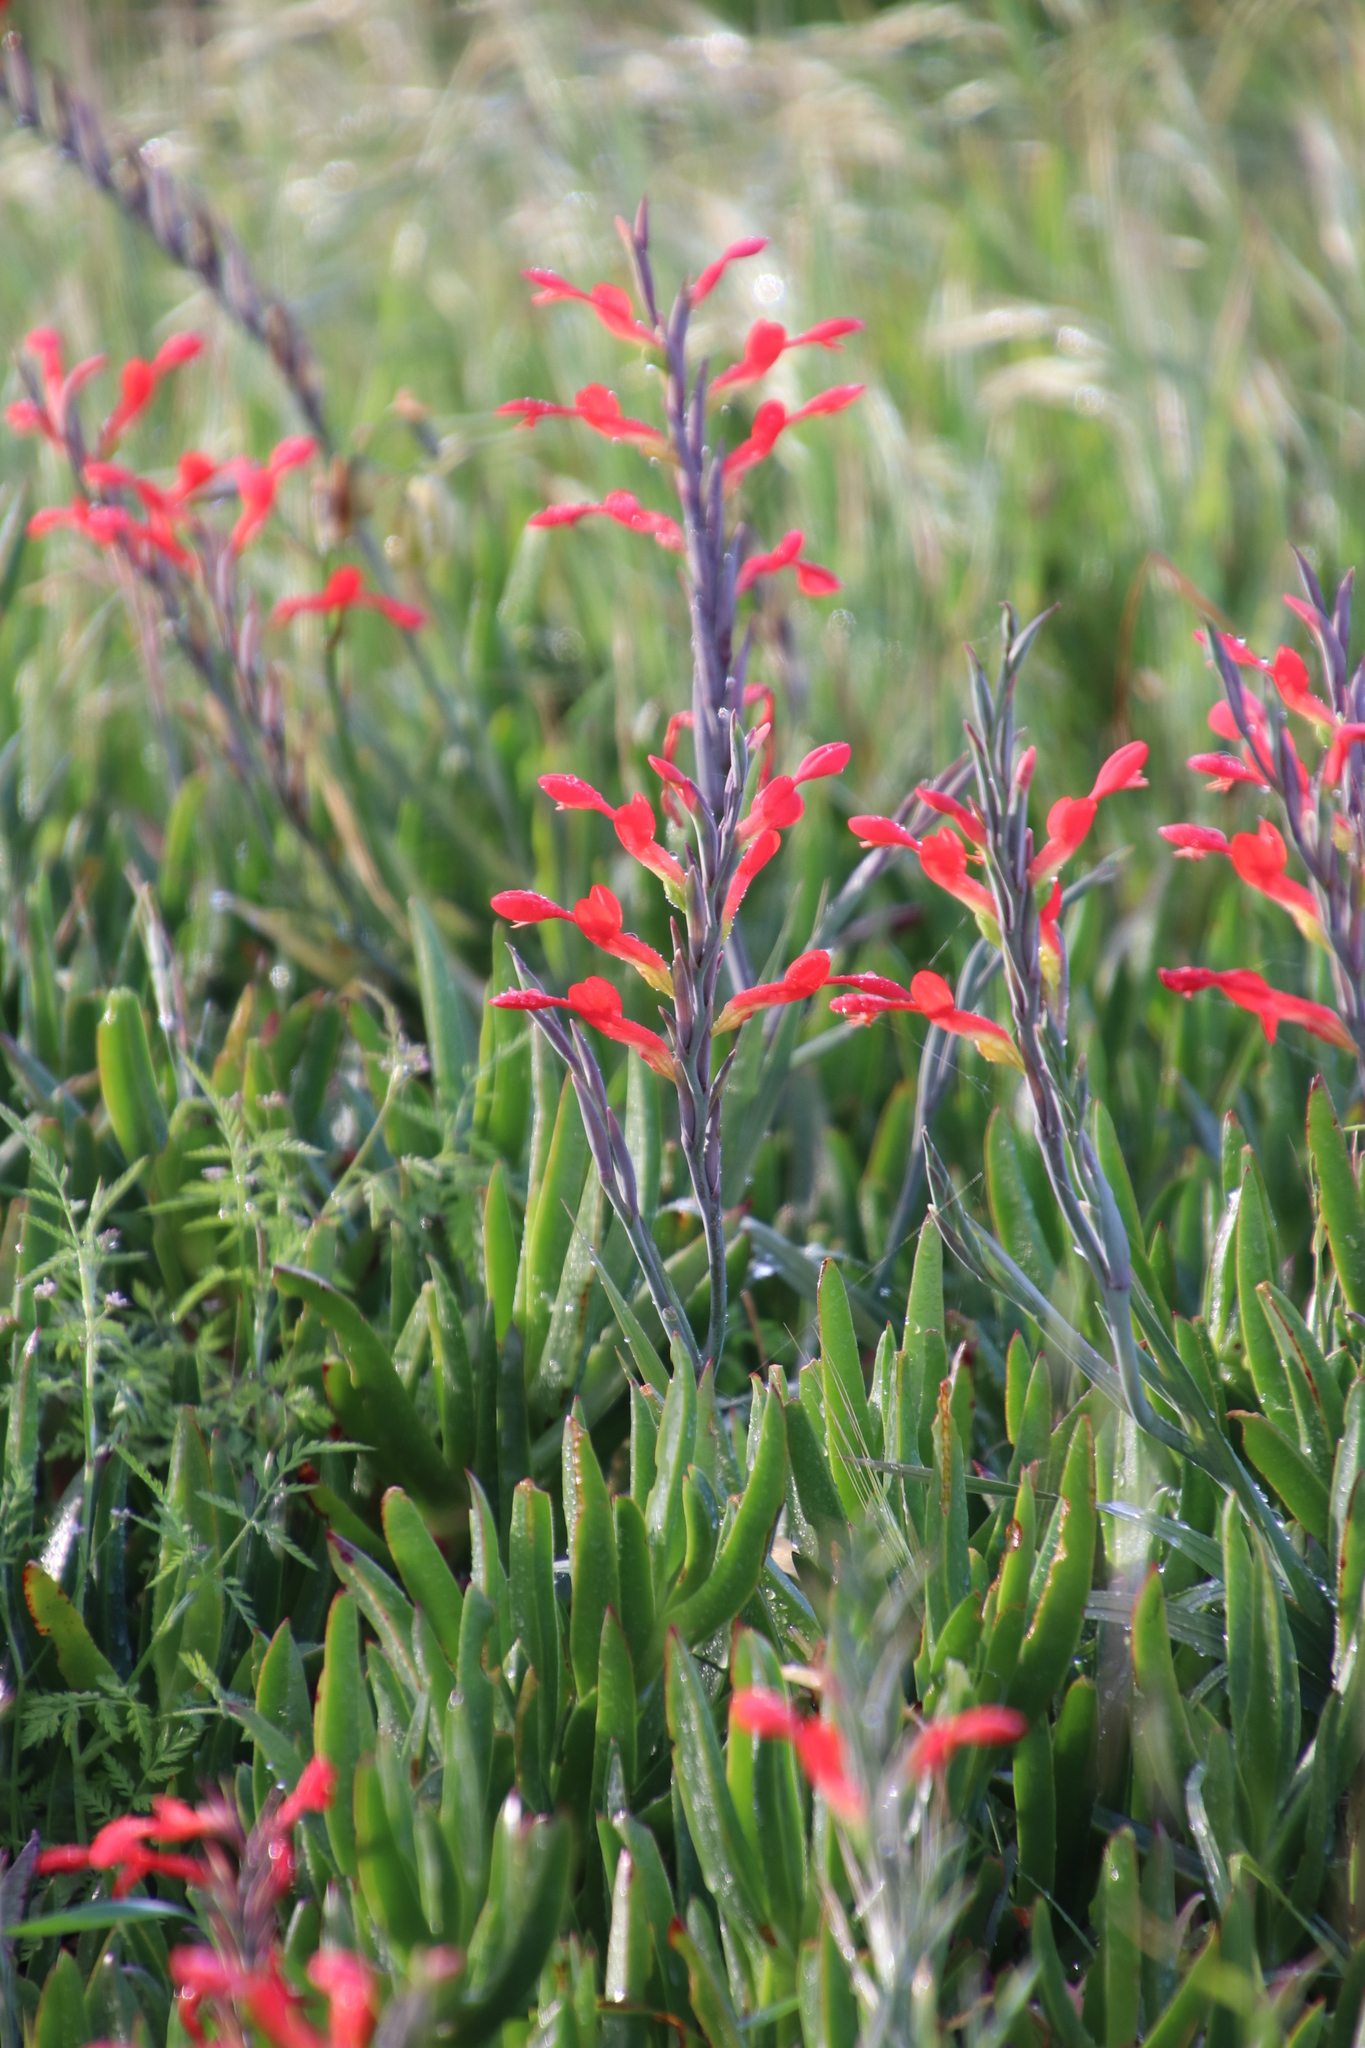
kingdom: Plantae
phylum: Tracheophyta
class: Liliopsida
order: Asparagales
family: Iridaceae
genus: Gladiolus
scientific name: Gladiolus cunonius
